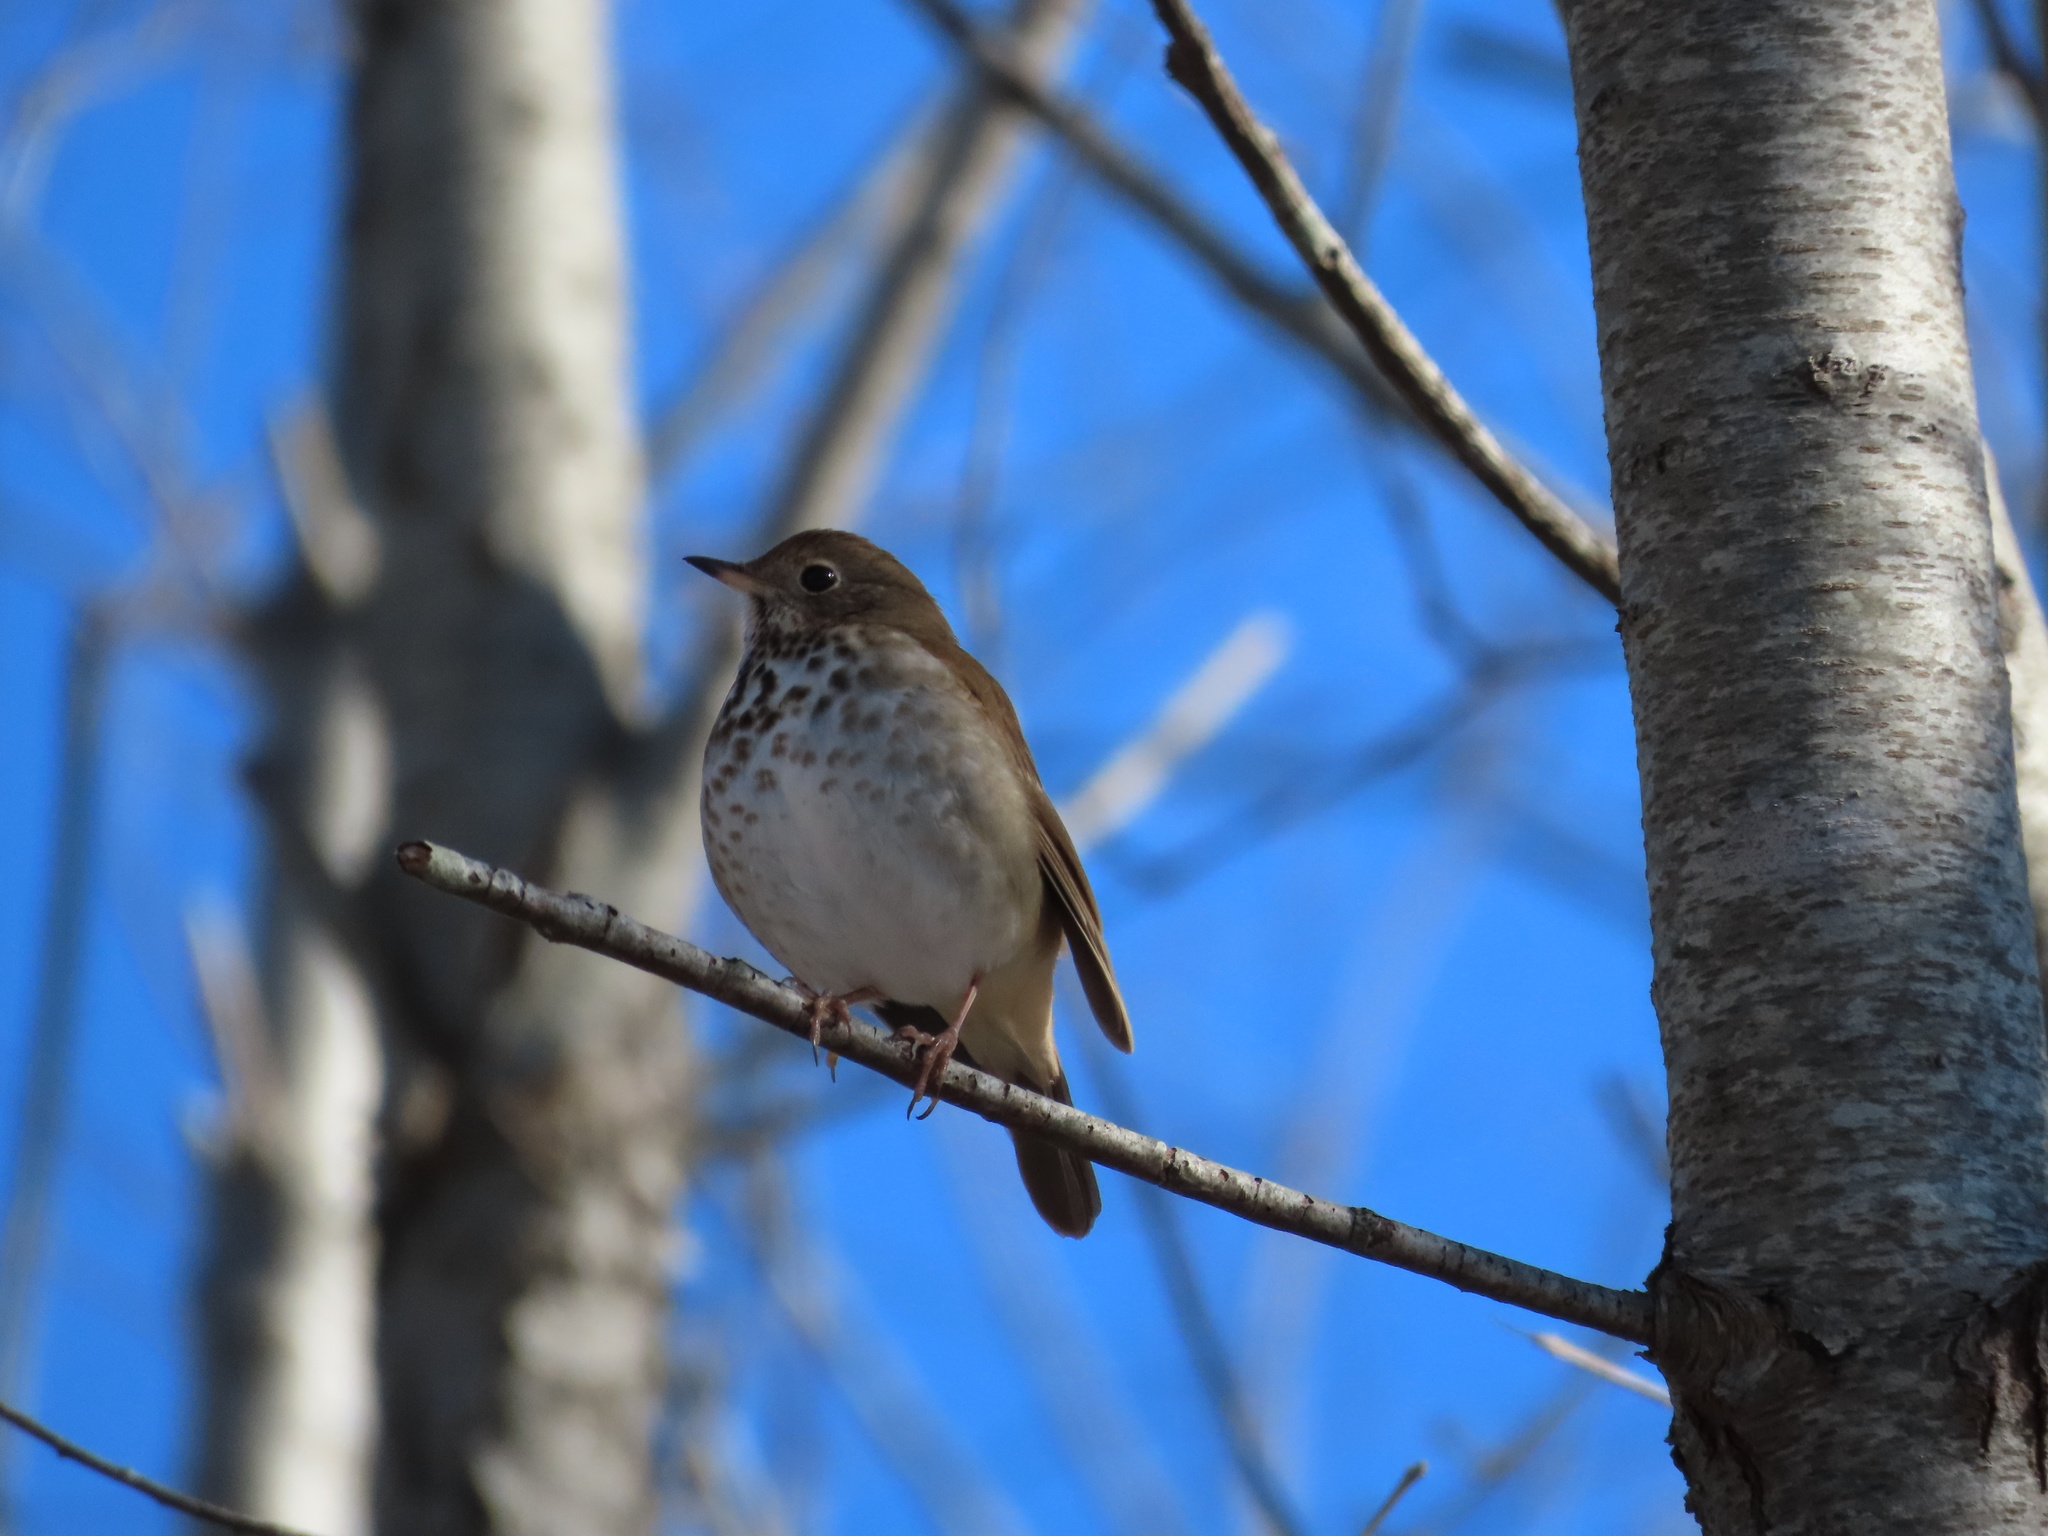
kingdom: Animalia
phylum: Chordata
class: Aves
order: Passeriformes
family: Turdidae
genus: Catharus
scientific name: Catharus guttatus
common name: Hermit thrush
